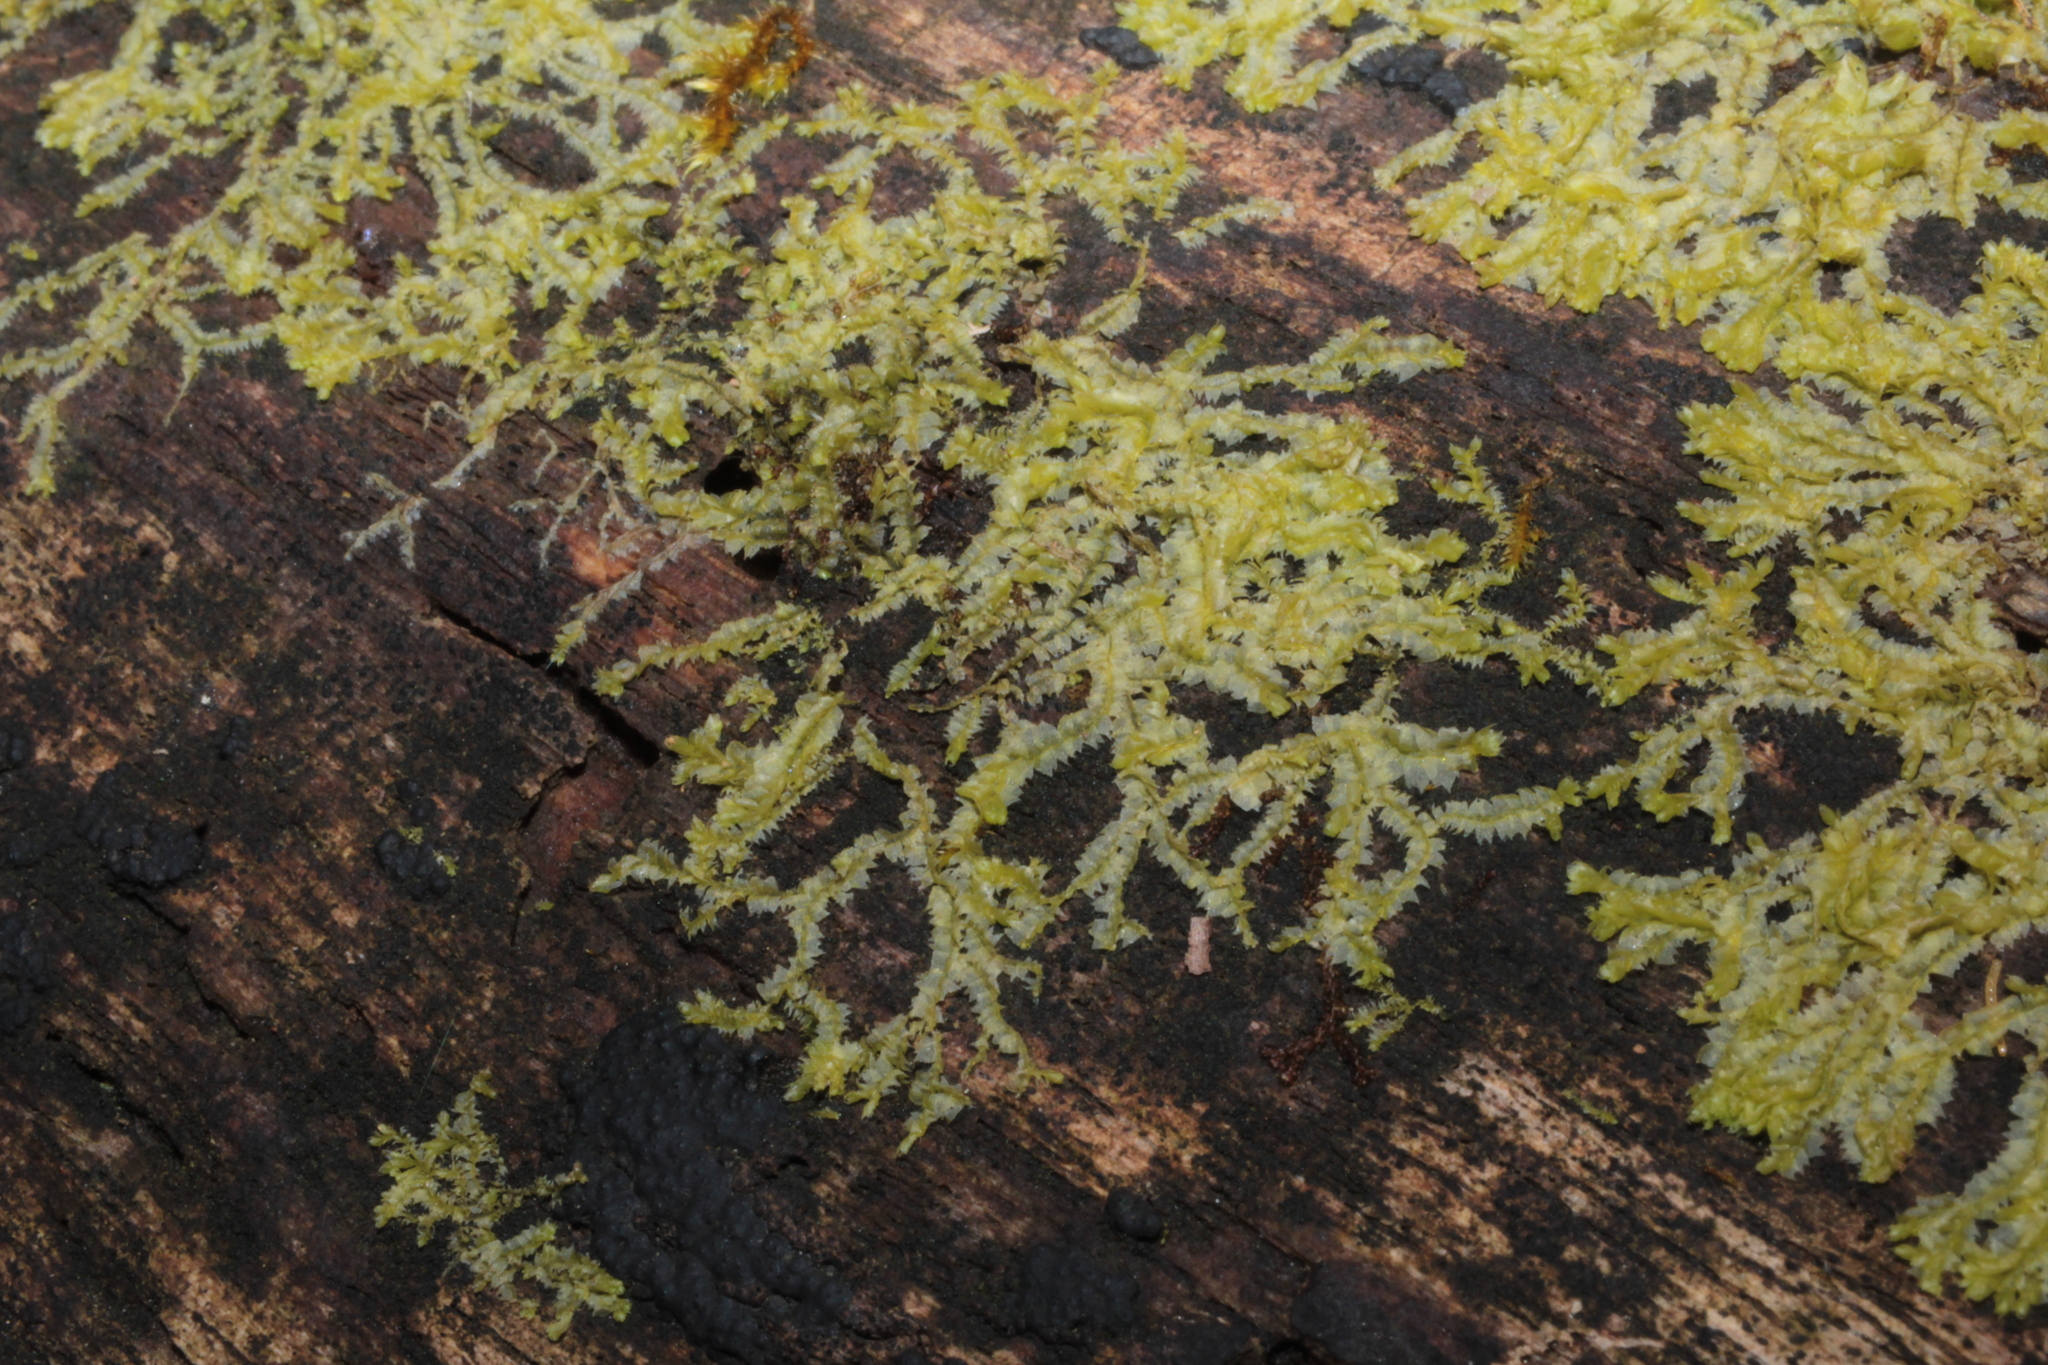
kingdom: Plantae
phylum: Marchantiophyta
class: Jungermanniopsida
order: Jungermanniales
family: Lophocoleaceae
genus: Lophocolea
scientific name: Lophocolea heterophylla
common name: Variable-leaved crestwort
